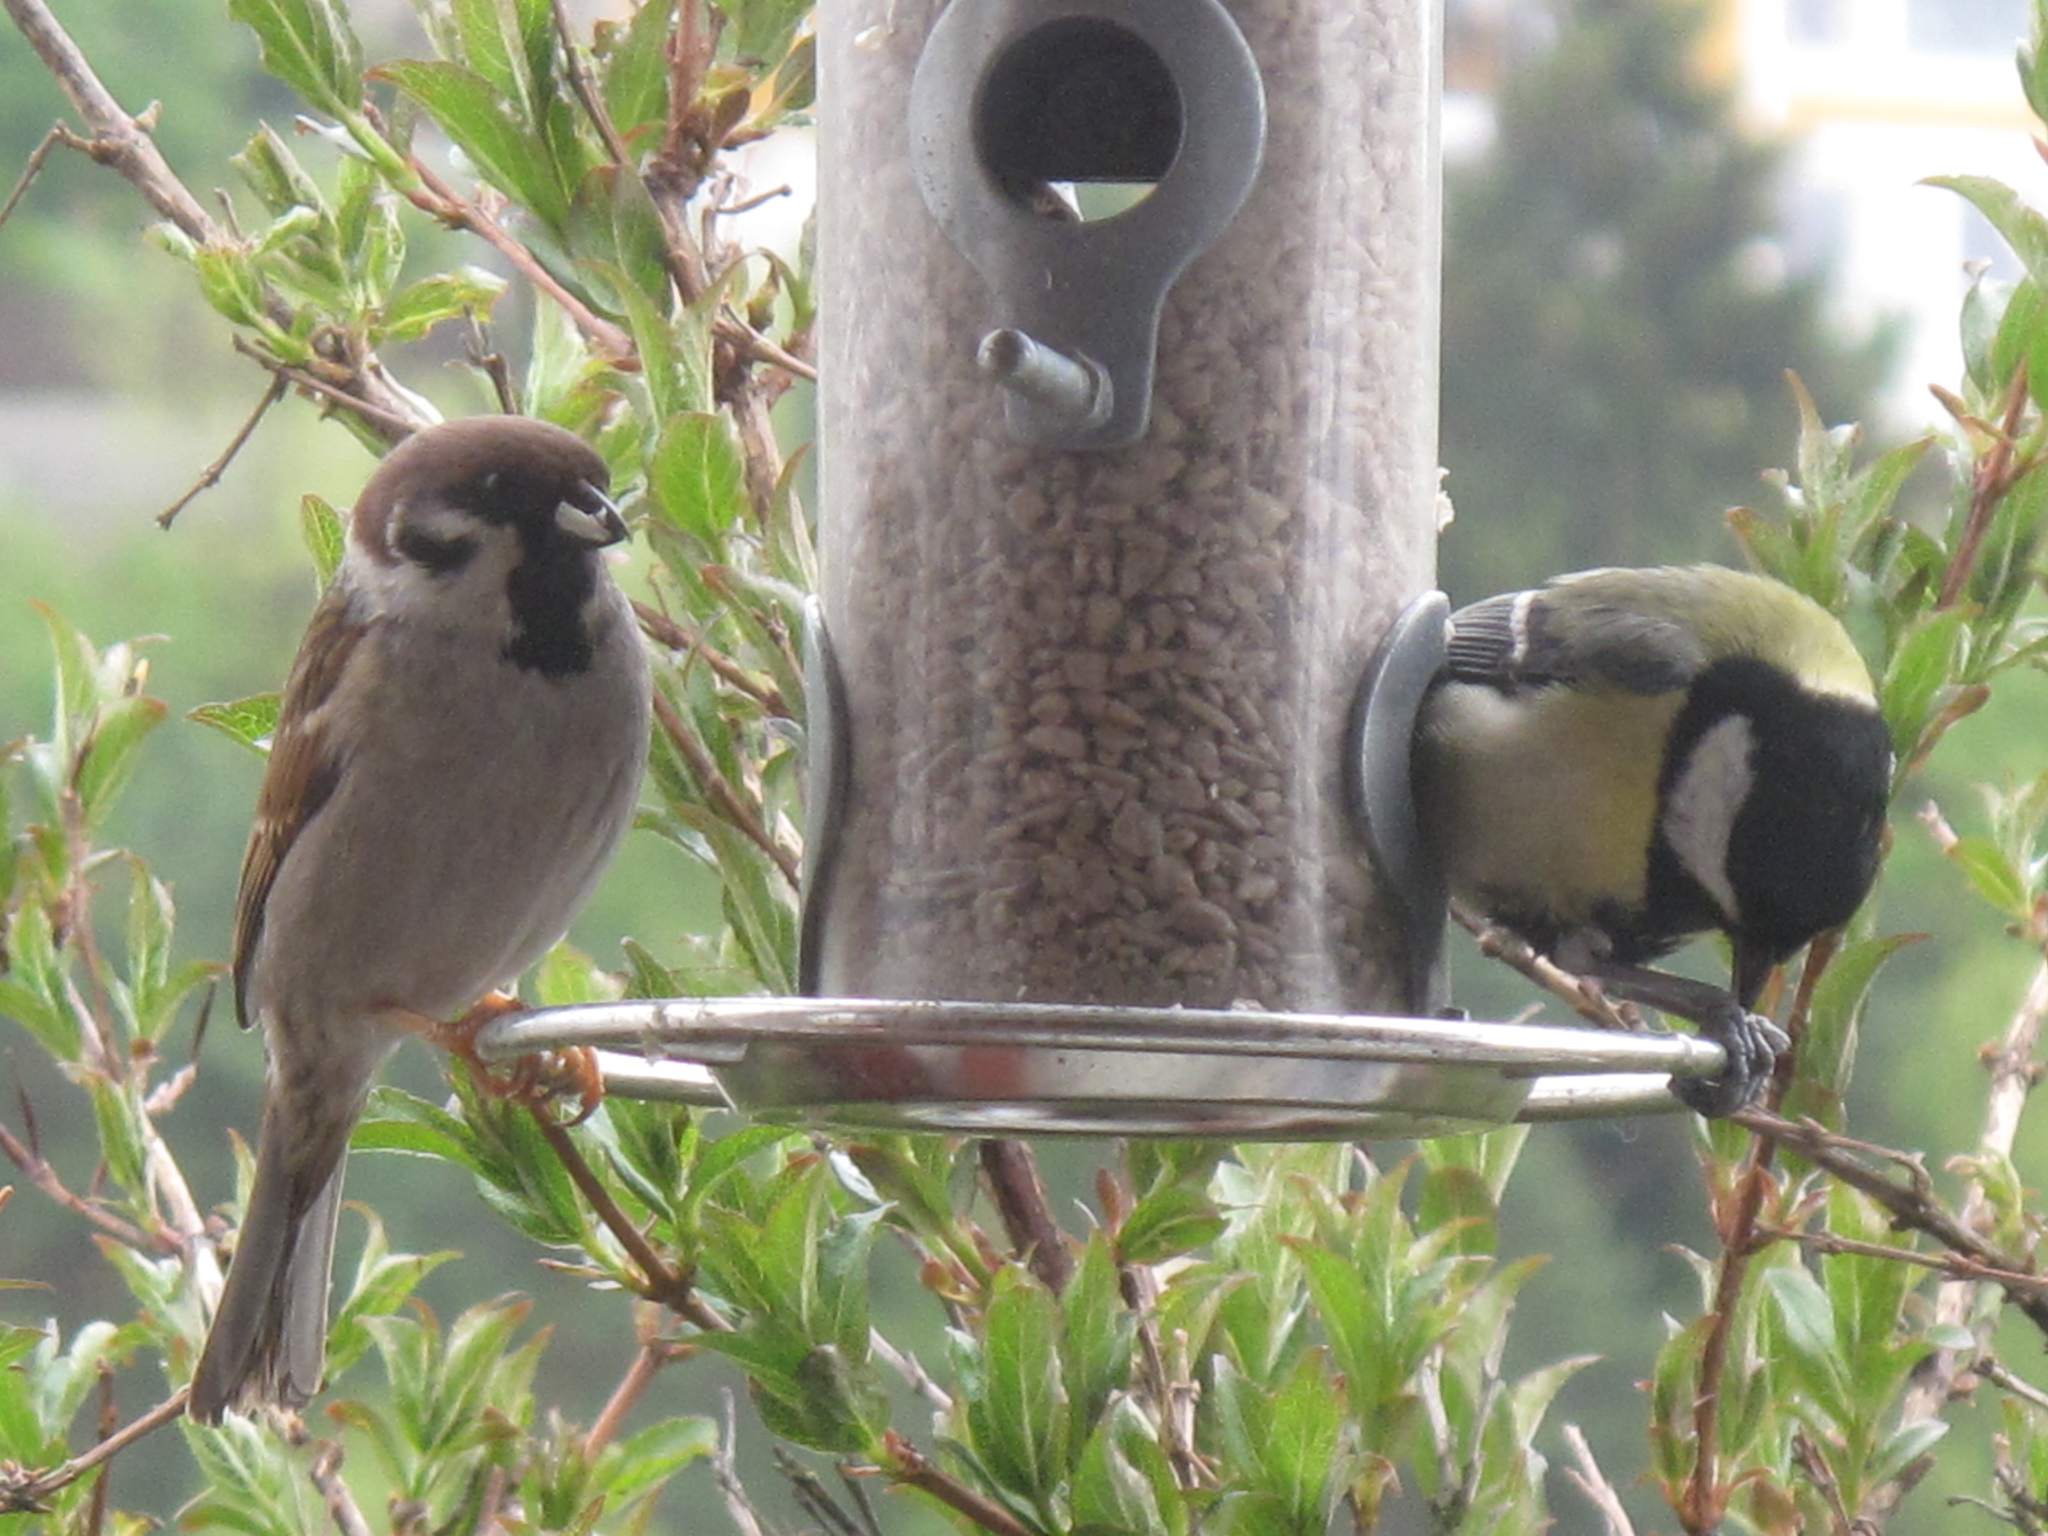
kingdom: Animalia
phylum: Chordata
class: Aves
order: Passeriformes
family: Paridae
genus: Parus
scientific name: Parus major
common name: Great tit
